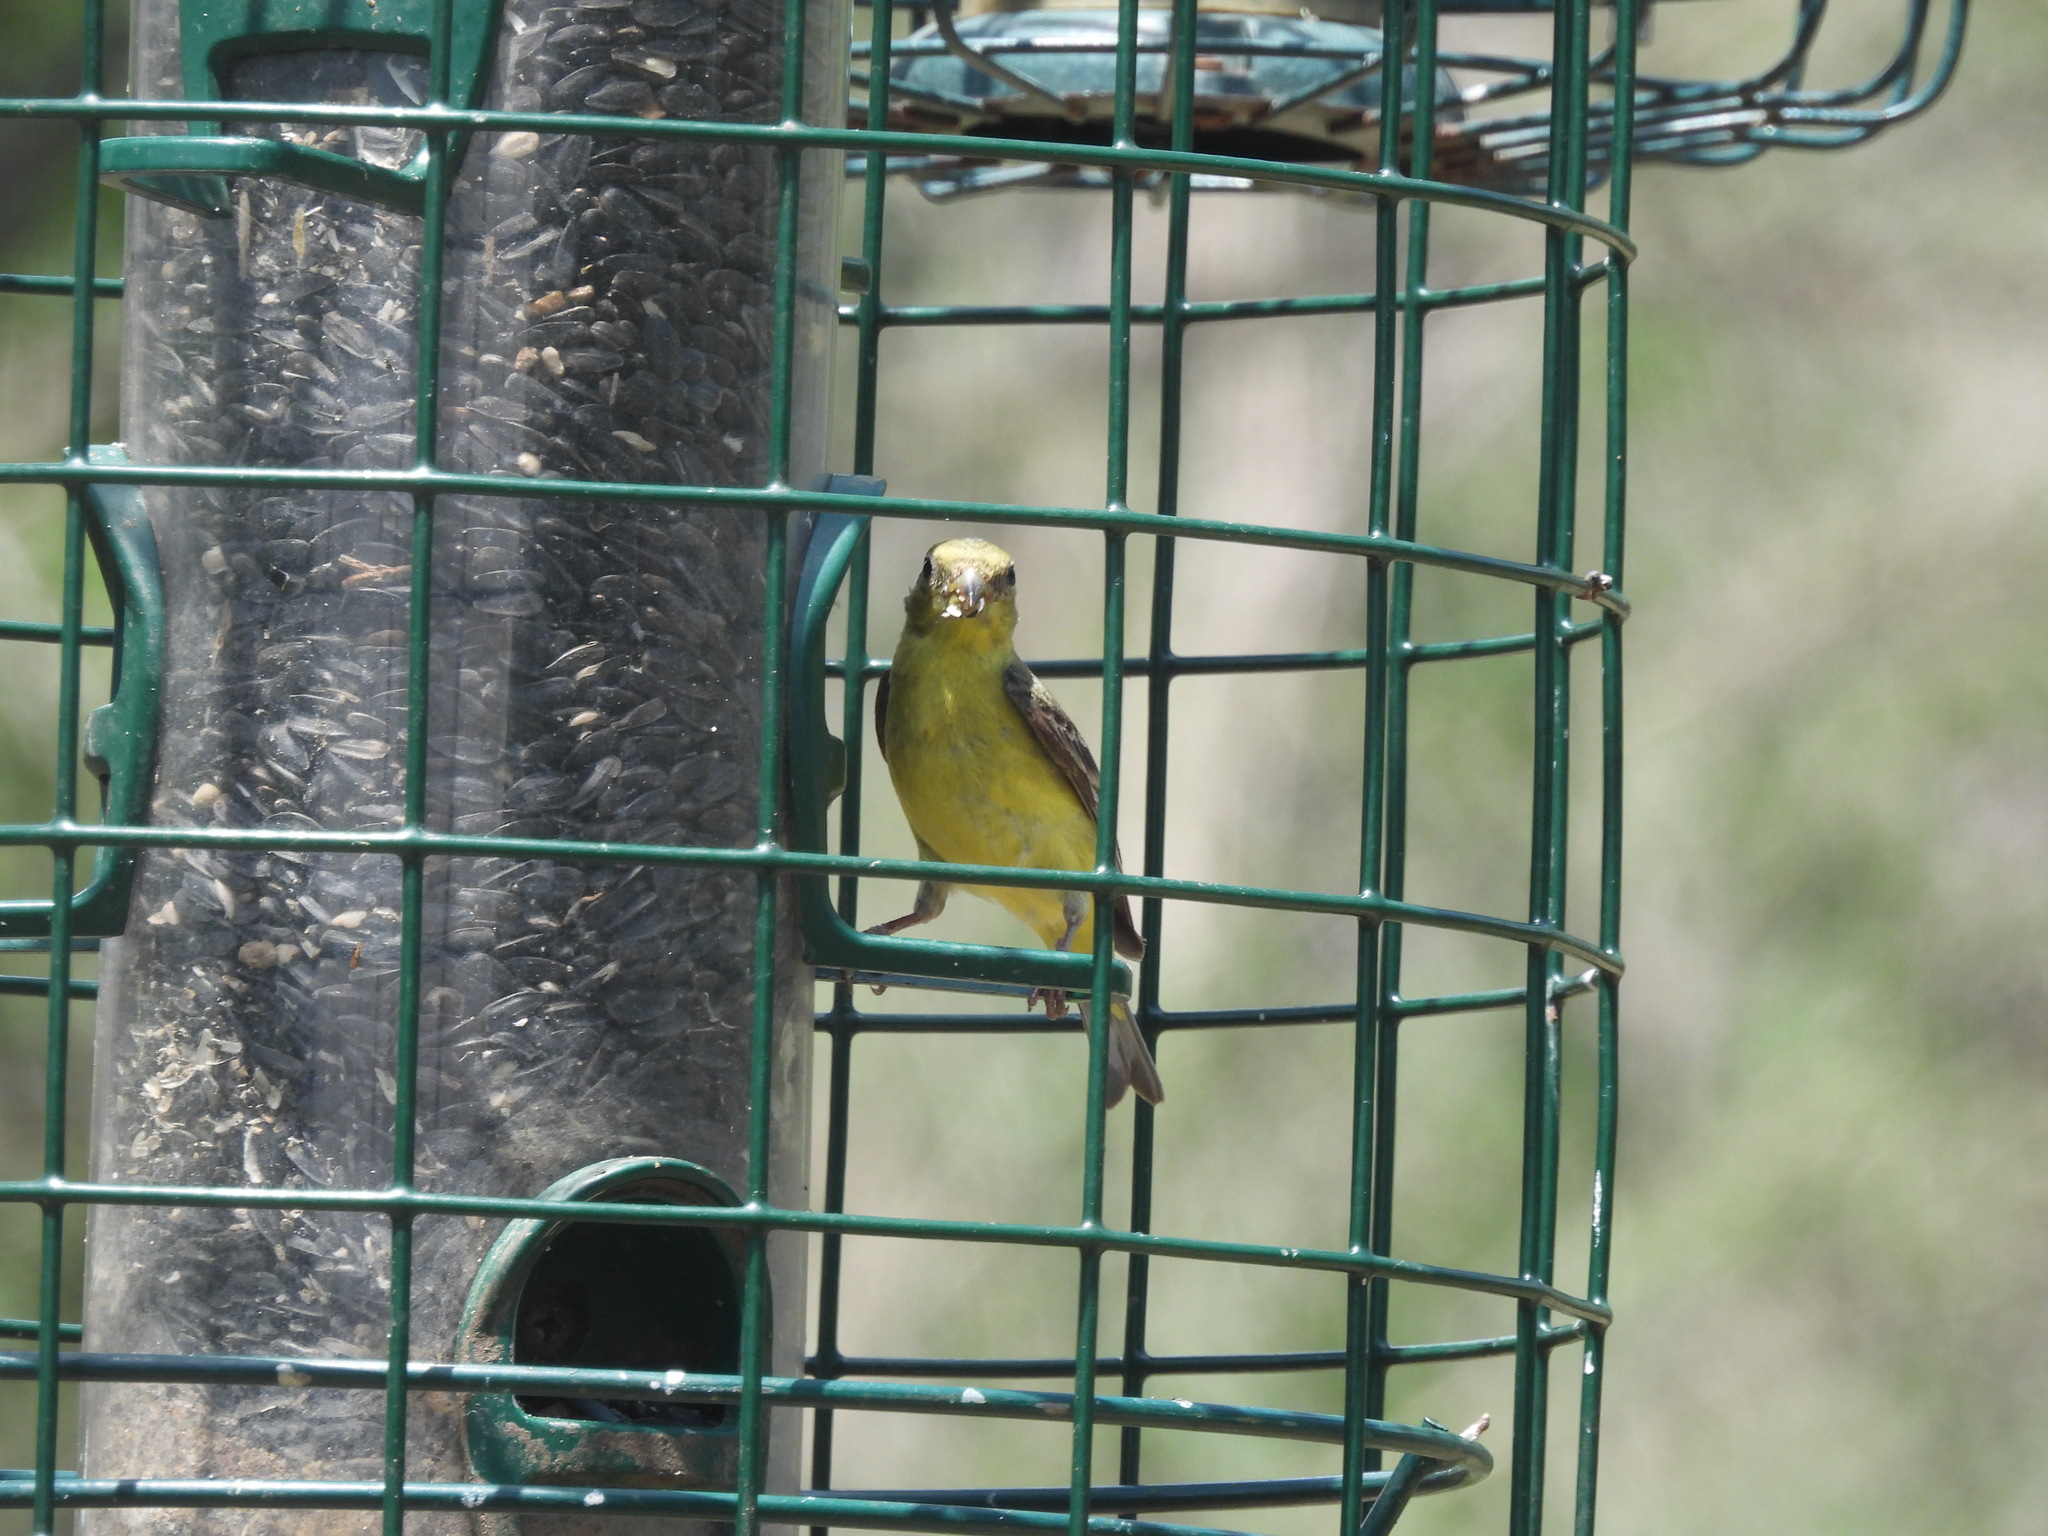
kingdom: Animalia
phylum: Chordata
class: Aves
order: Passeriformes
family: Fringillidae
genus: Spinus
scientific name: Spinus psaltria
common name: Lesser goldfinch
